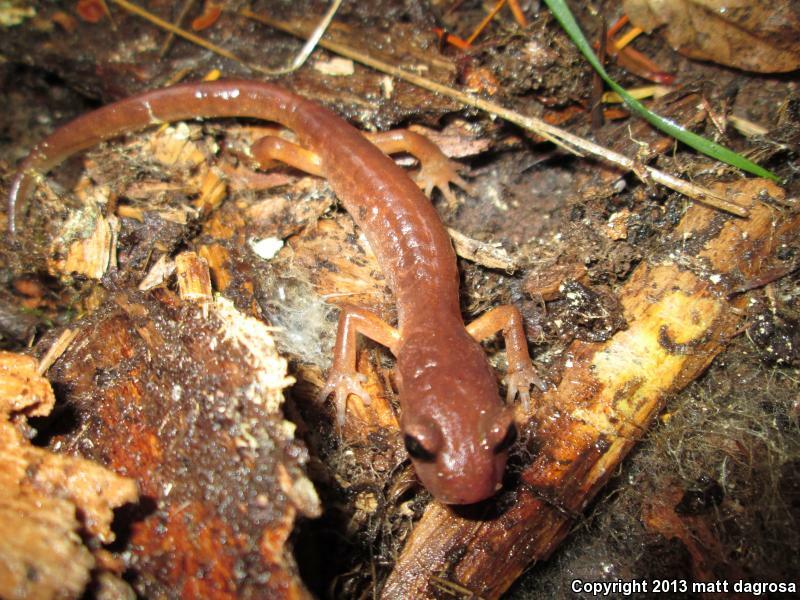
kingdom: Animalia
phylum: Chordata
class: Amphibia
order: Caudata
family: Plethodontidae
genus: Ensatina
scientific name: Ensatina eschscholtzii
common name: Ensatina
